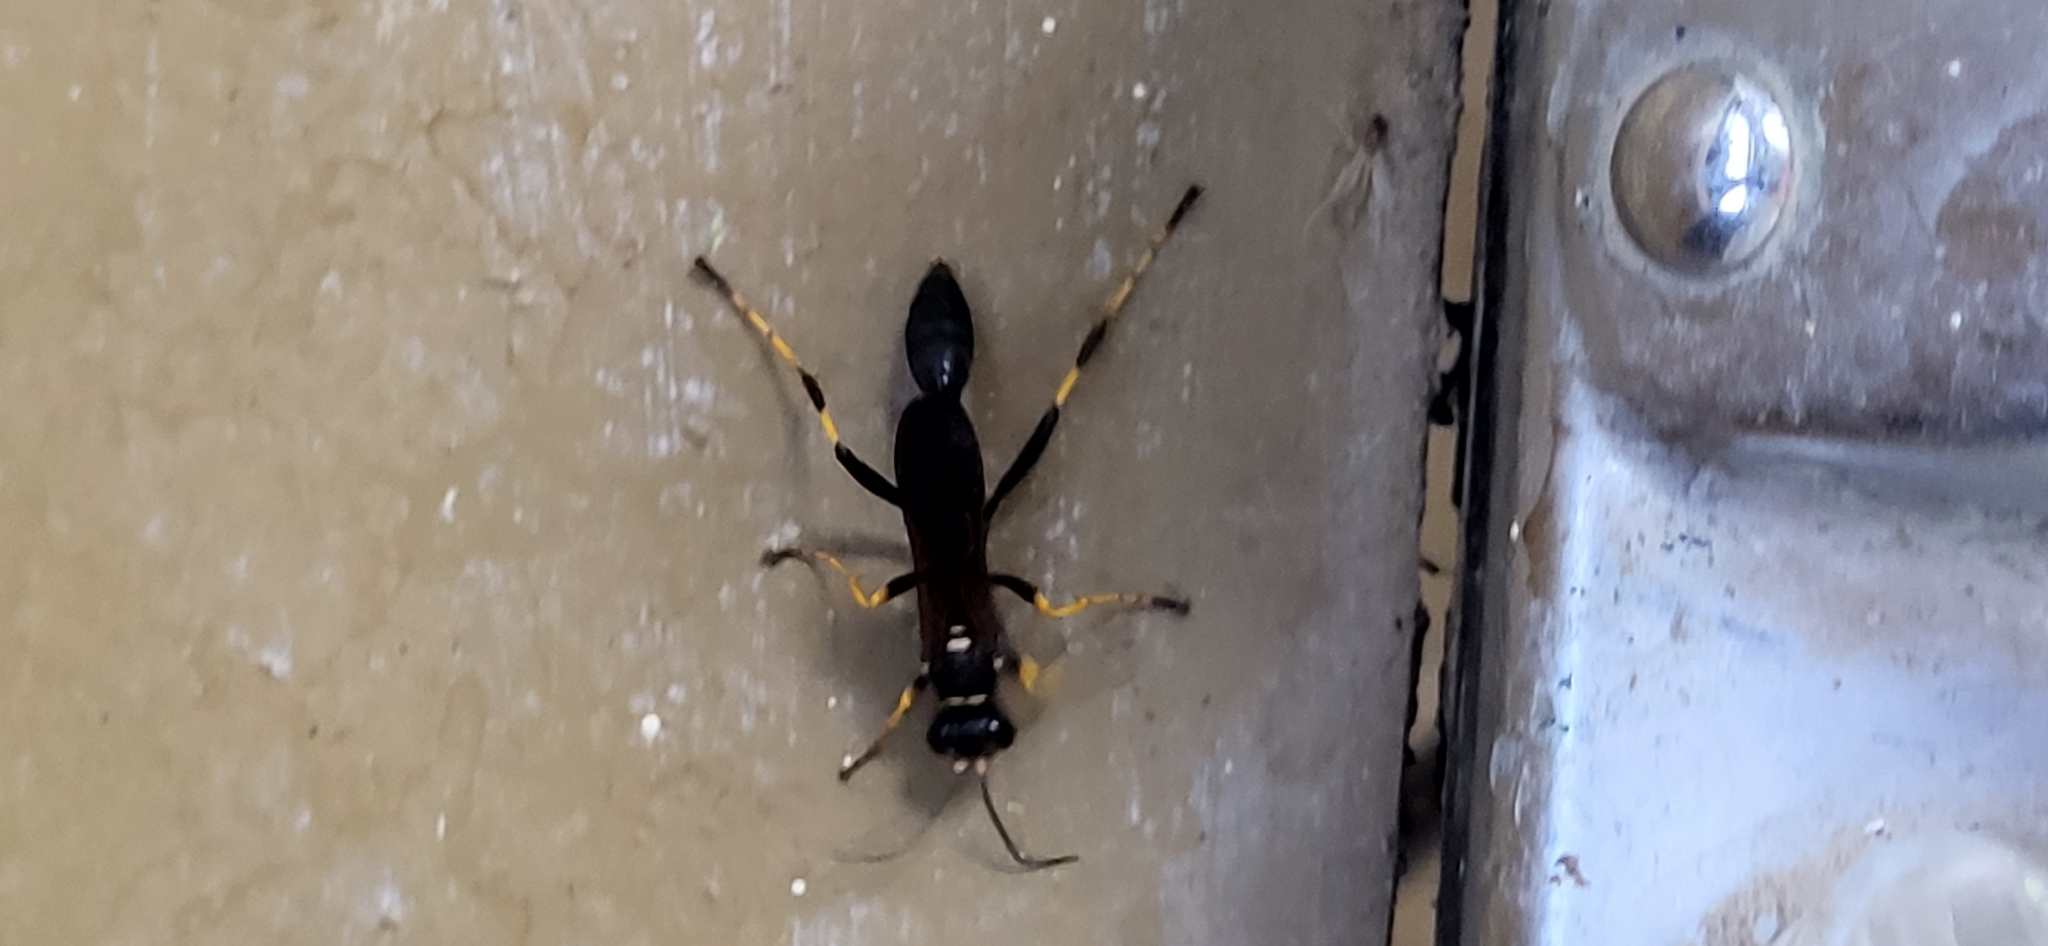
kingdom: Animalia
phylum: Arthropoda
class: Insecta
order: Hymenoptera
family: Sphecidae
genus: Sceliphron
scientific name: Sceliphron caementarium
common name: Mud dauber
